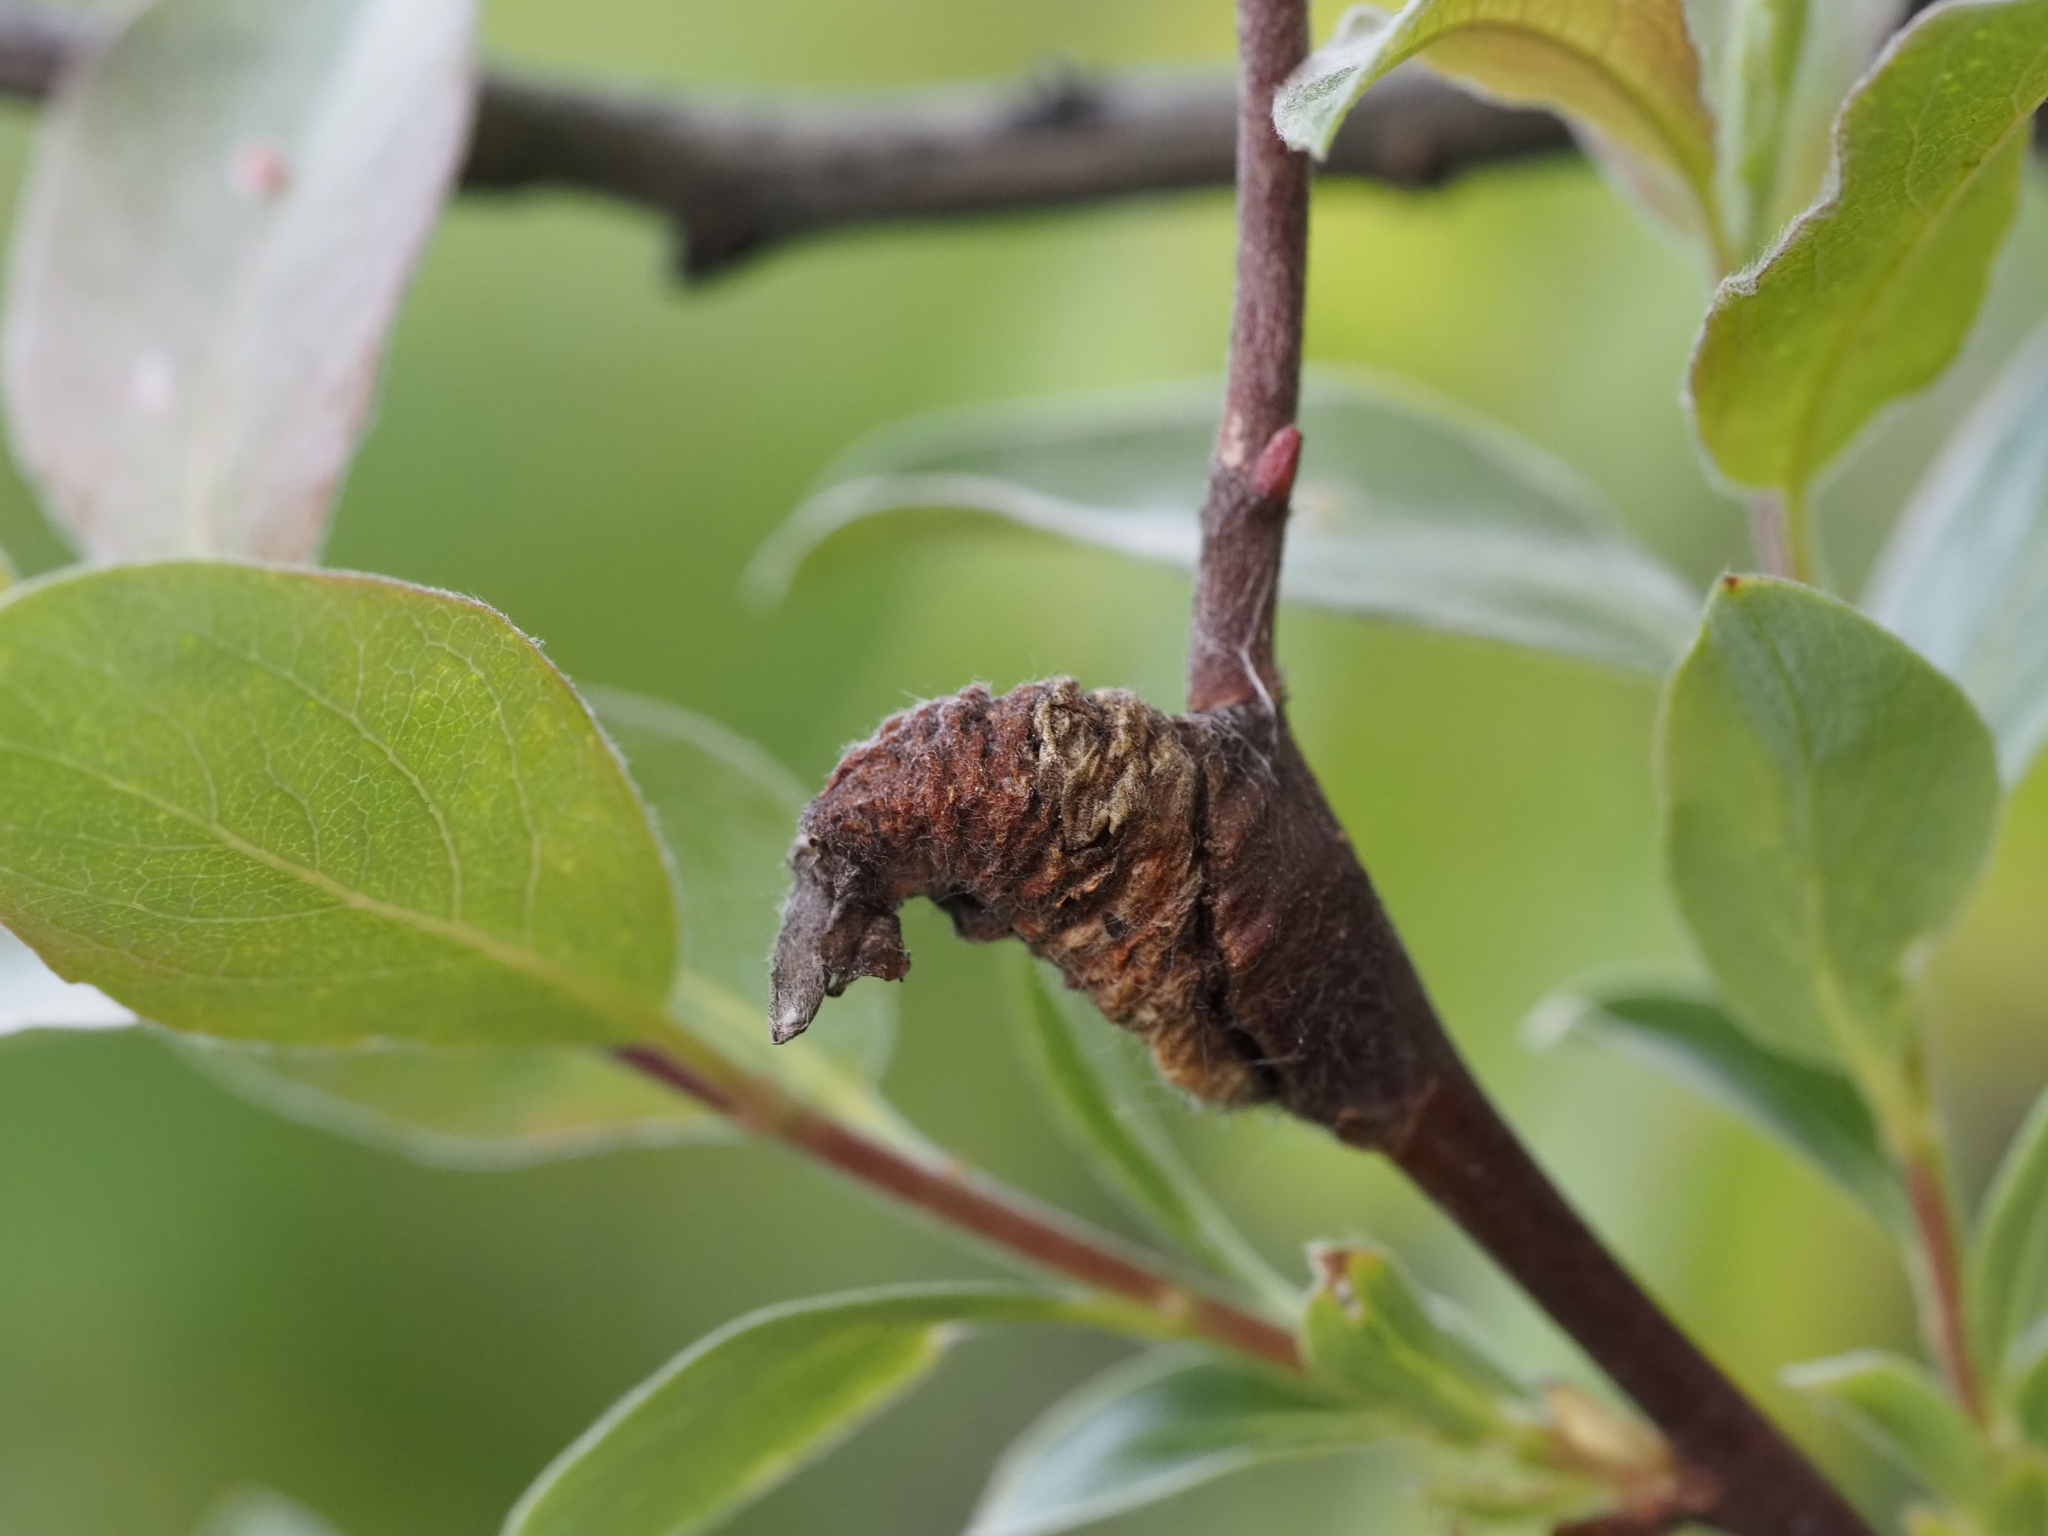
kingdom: Animalia
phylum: Arthropoda
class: Insecta
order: Diptera
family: Cecidomyiidae
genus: Thecodiplosis
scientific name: Thecodiplosis pinirigidae
